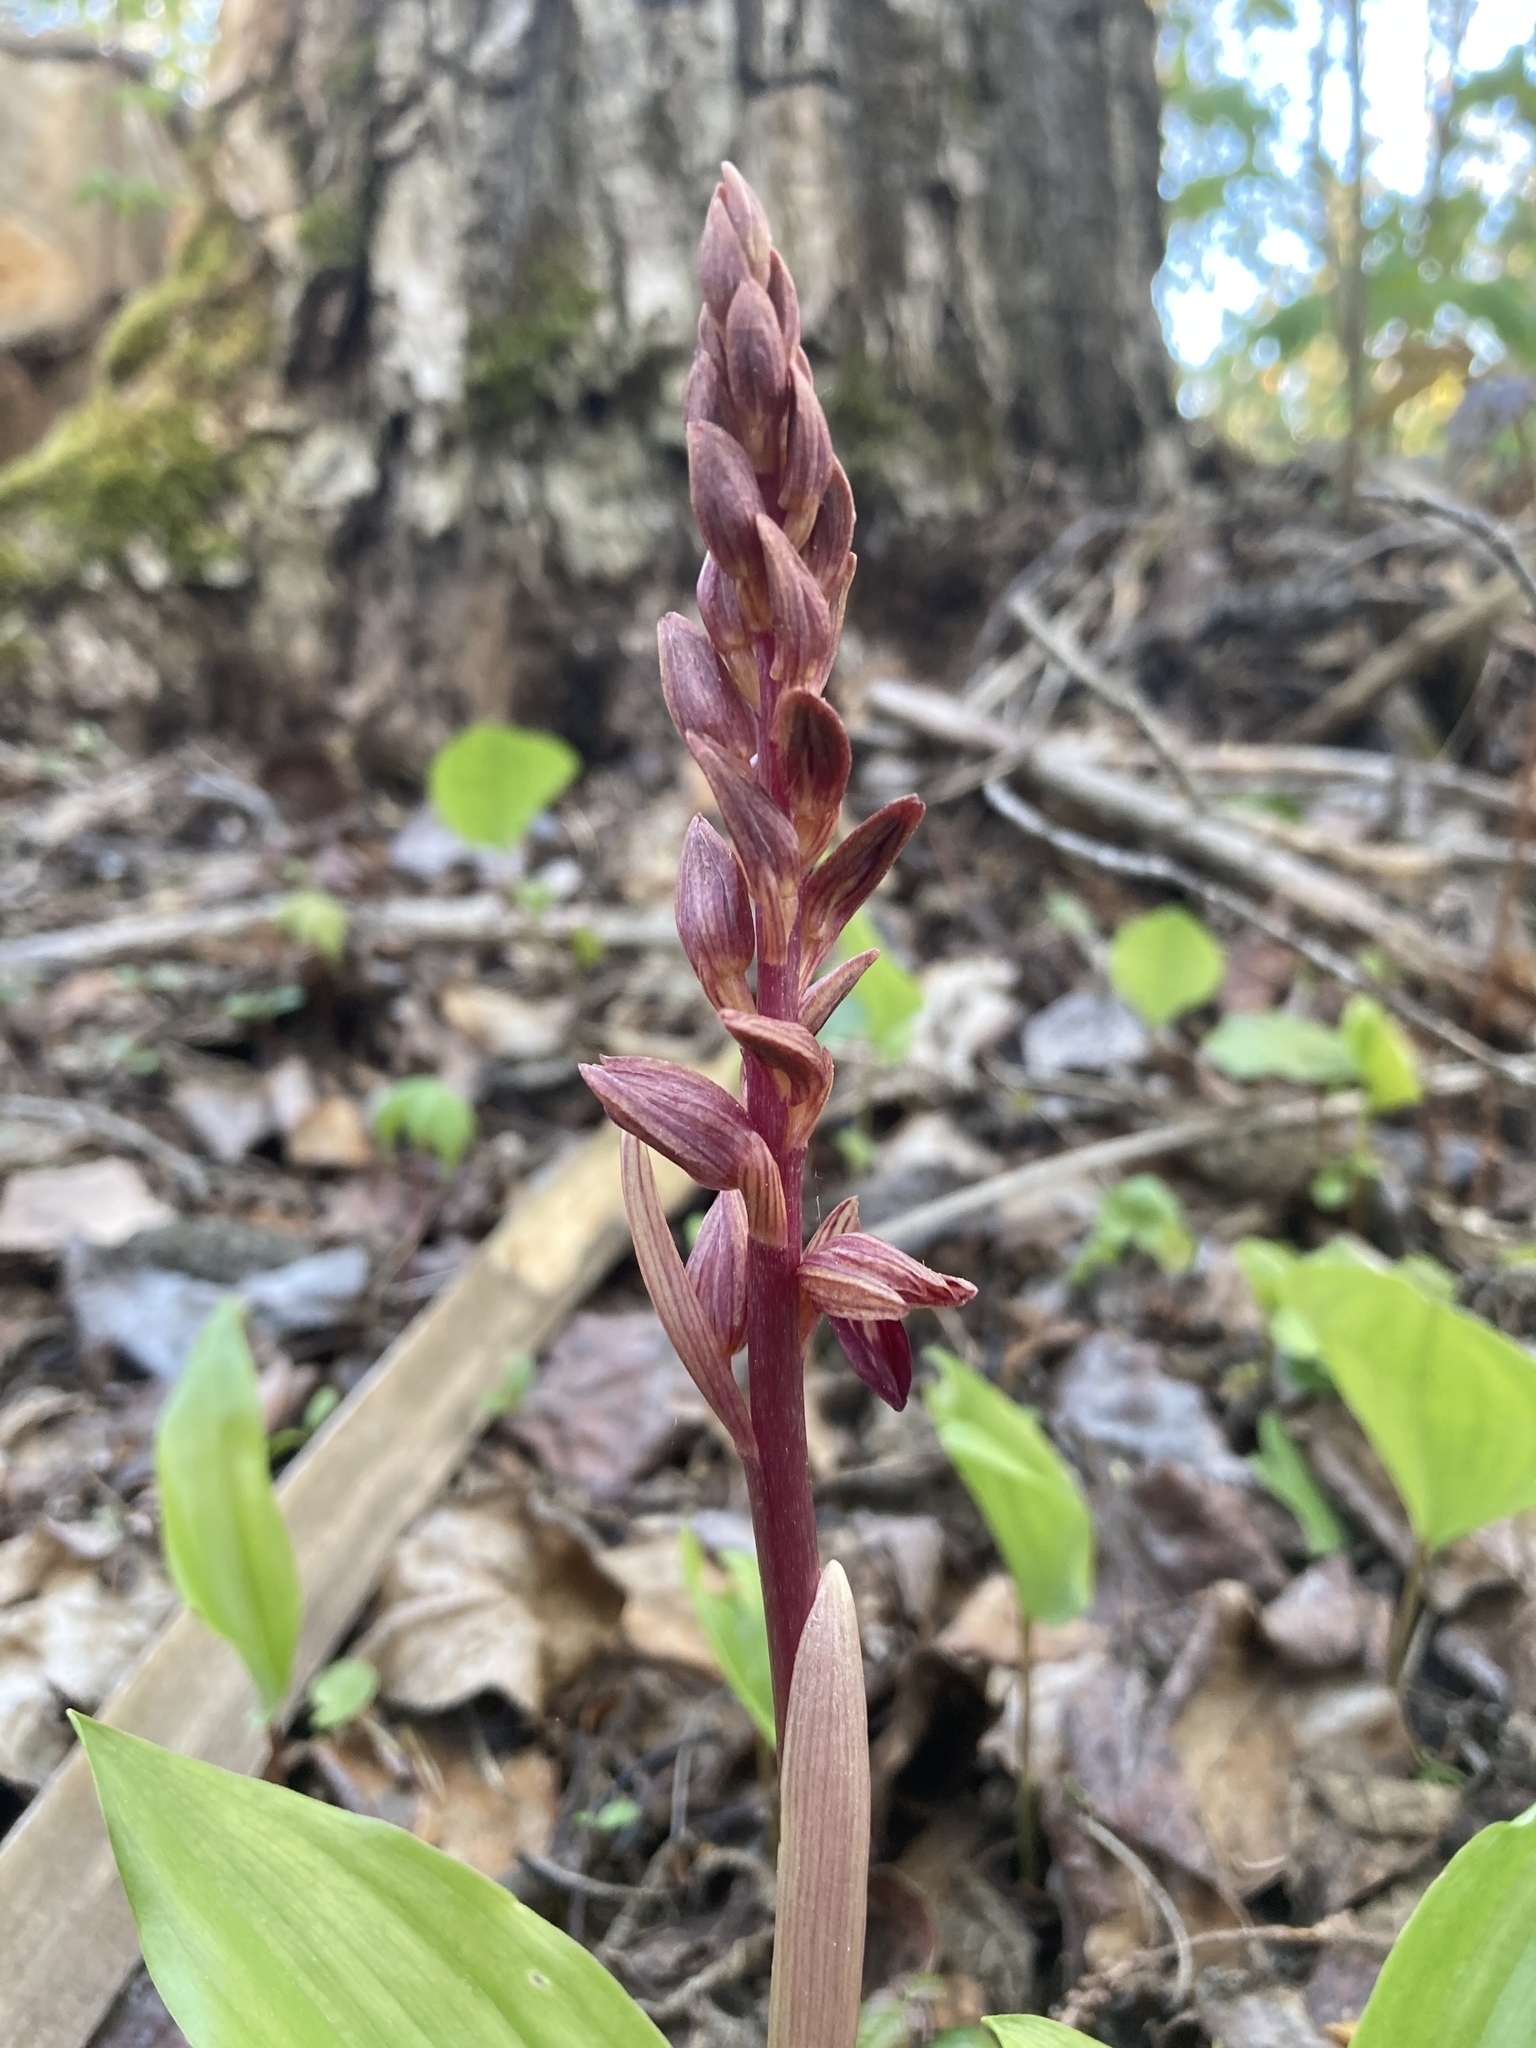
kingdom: Plantae
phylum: Tracheophyta
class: Liliopsida
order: Asparagales
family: Orchidaceae
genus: Corallorhiza
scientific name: Corallorhiza striata
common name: Hooded coralroot
